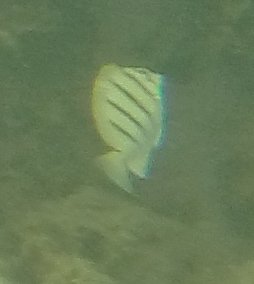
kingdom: Animalia
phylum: Chordata
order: Perciformes
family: Acanthuridae
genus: Acanthurus
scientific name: Acanthurus triostegus
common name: Convict surgeonfish
